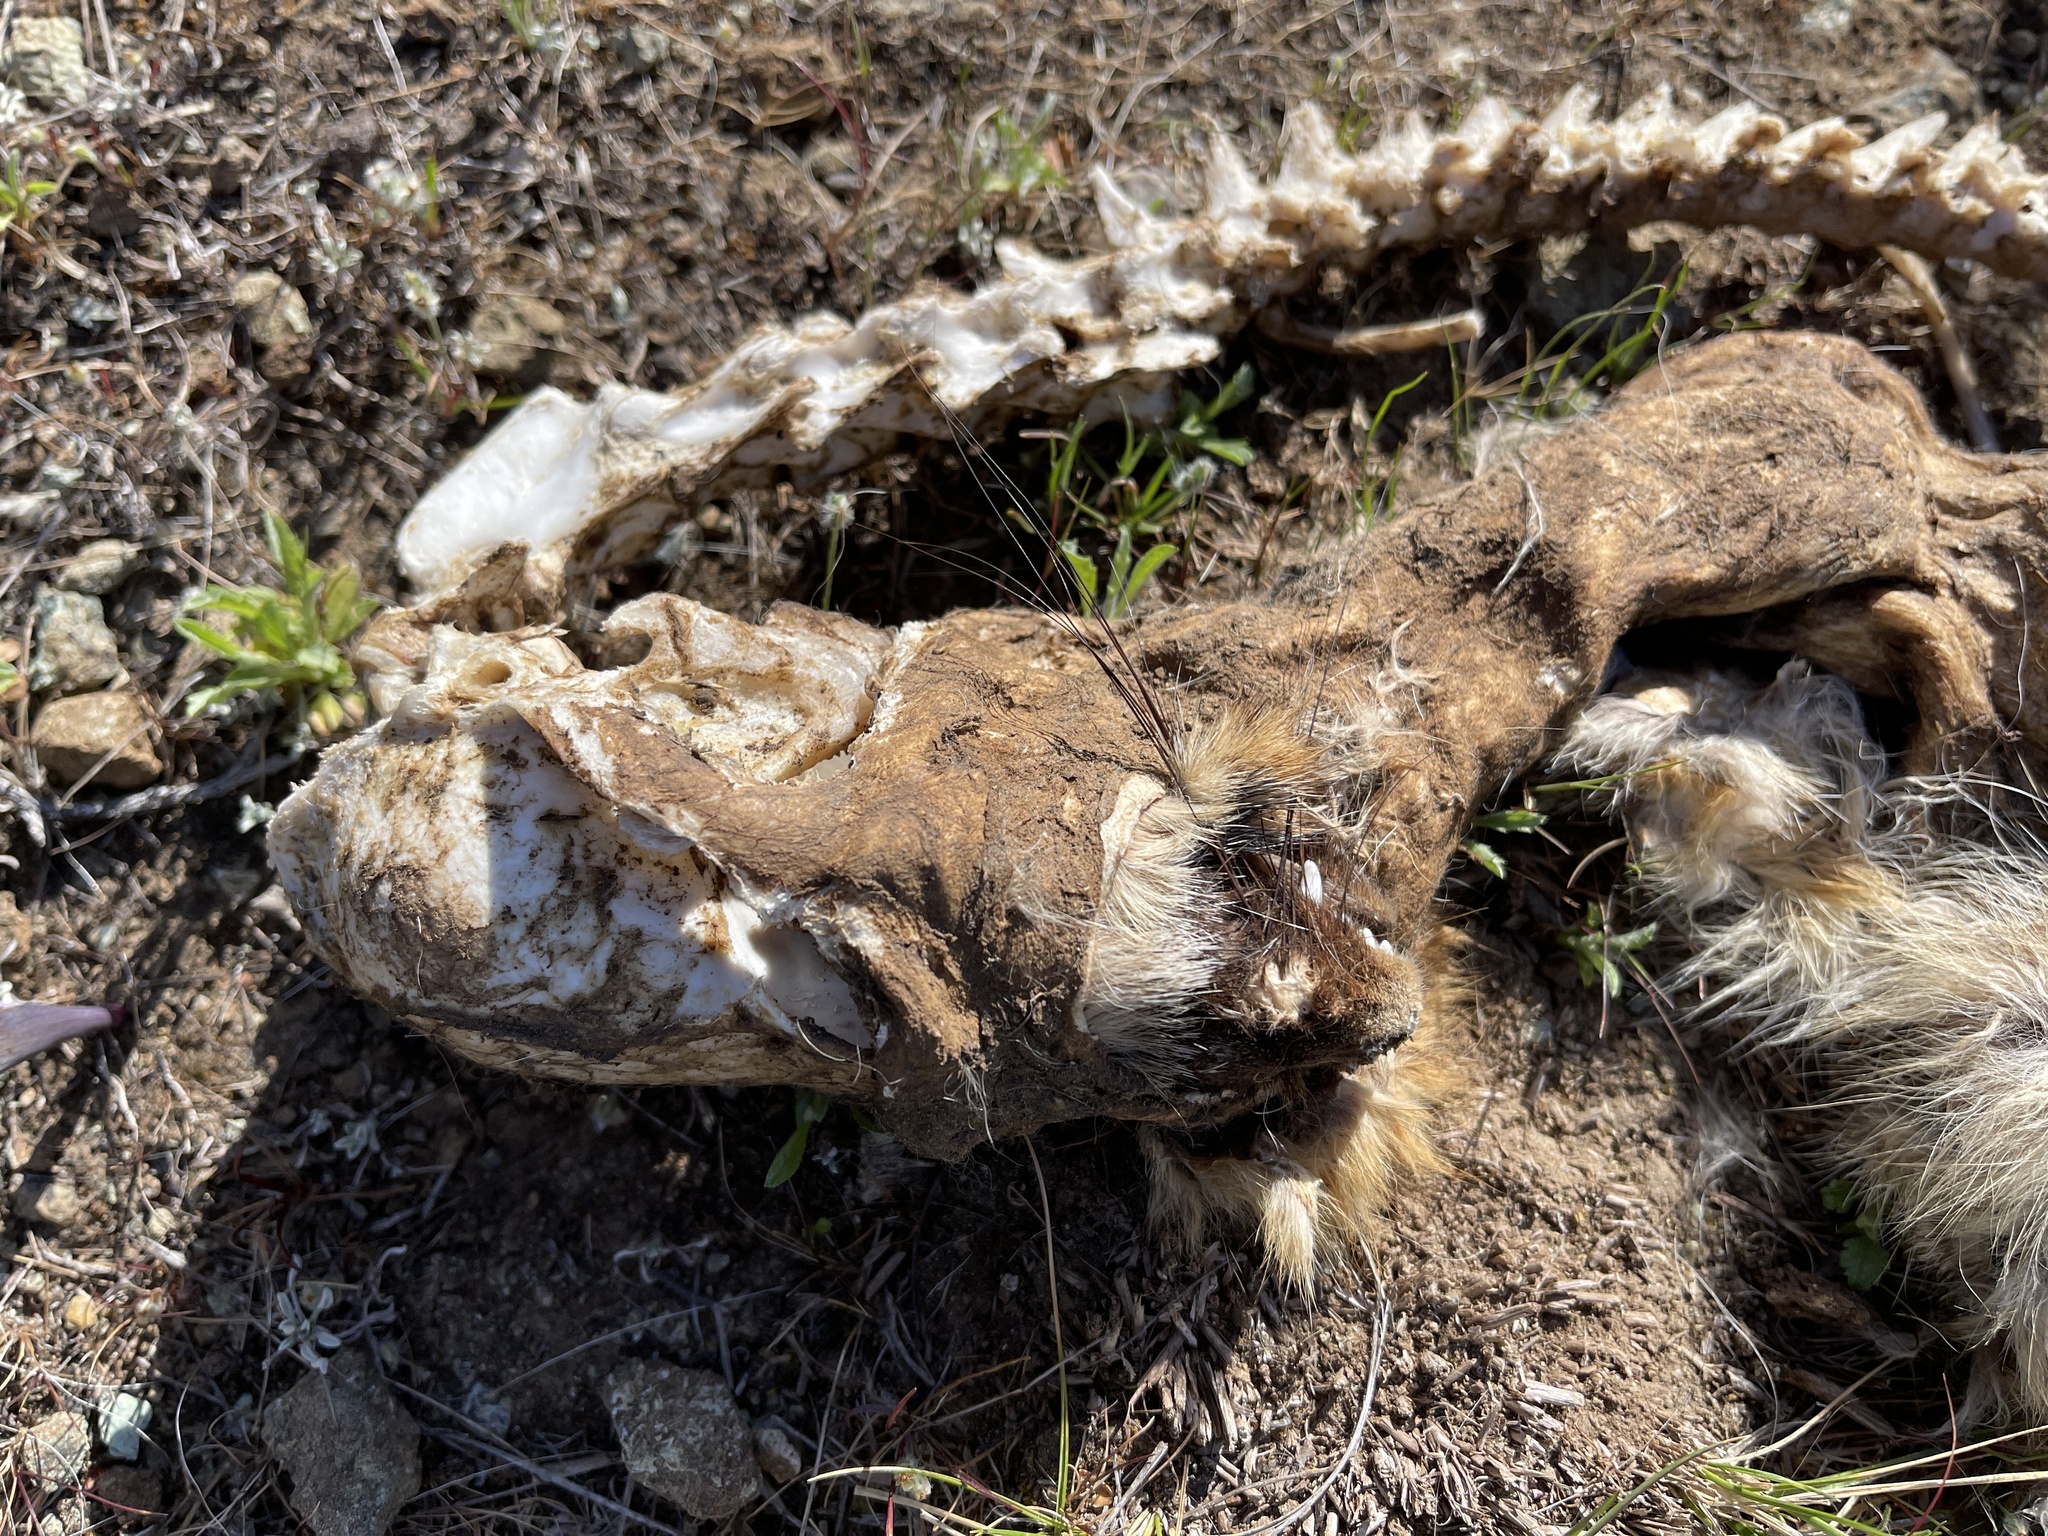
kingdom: Animalia
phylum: Chordata
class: Mammalia
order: Carnivora
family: Canidae
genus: Urocyon
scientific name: Urocyon cinereoargenteus
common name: Gray fox
